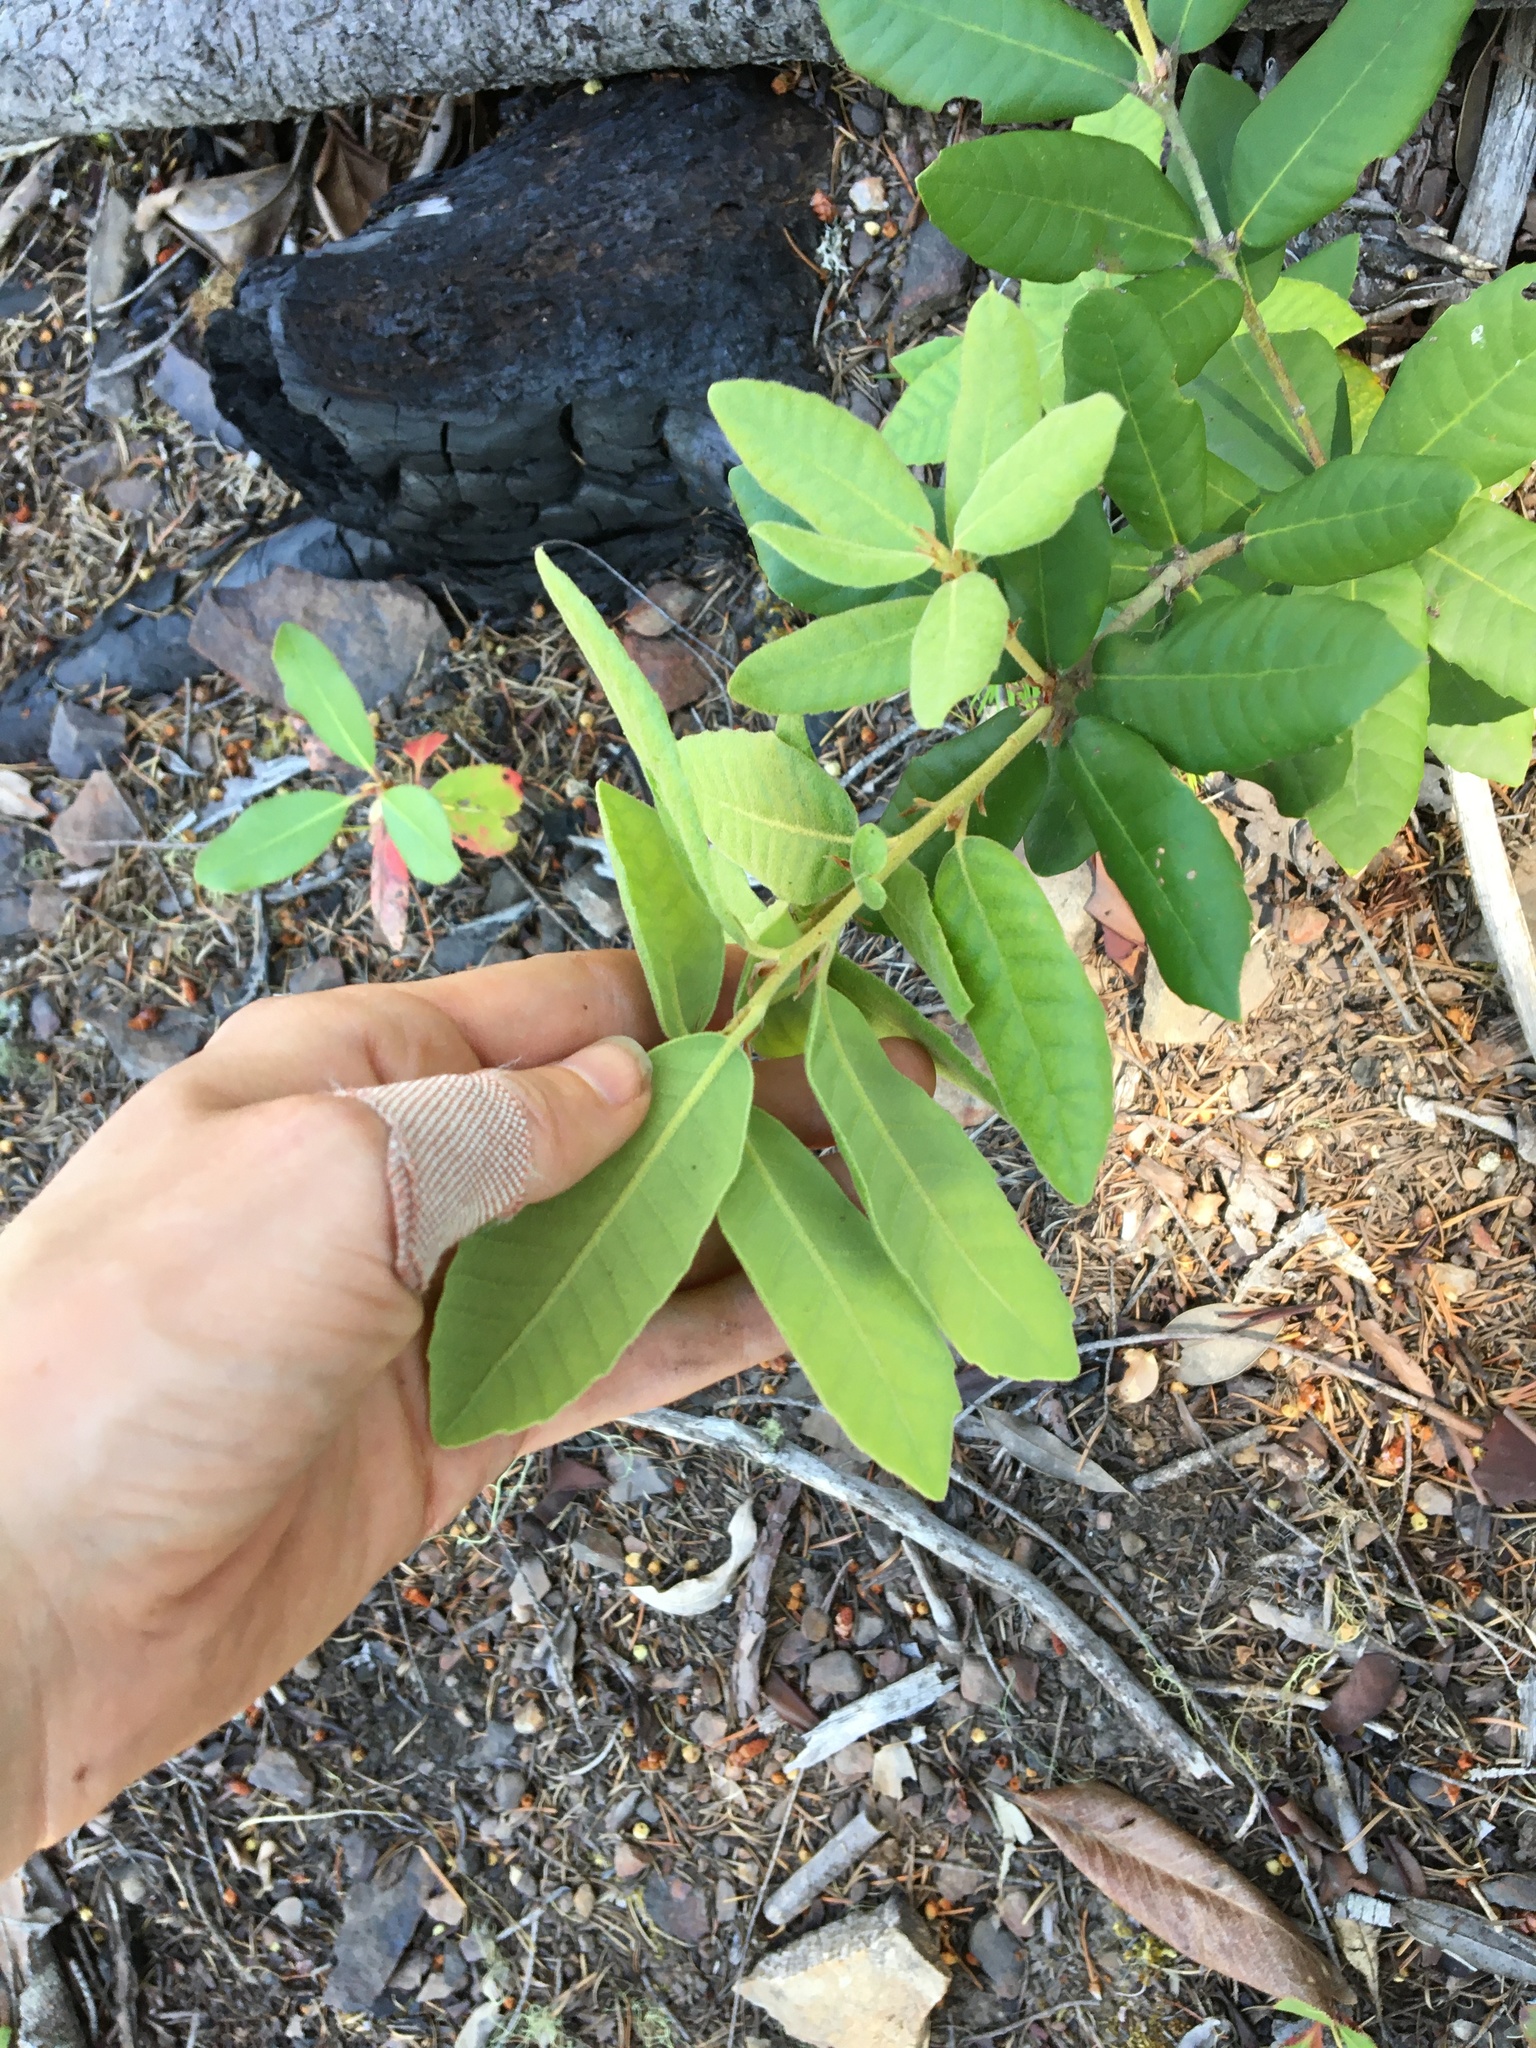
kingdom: Plantae
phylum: Tracheophyta
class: Magnoliopsida
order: Fagales
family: Fagaceae
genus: Notholithocarpus
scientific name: Notholithocarpus densiflorus
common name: Tan bark oak
